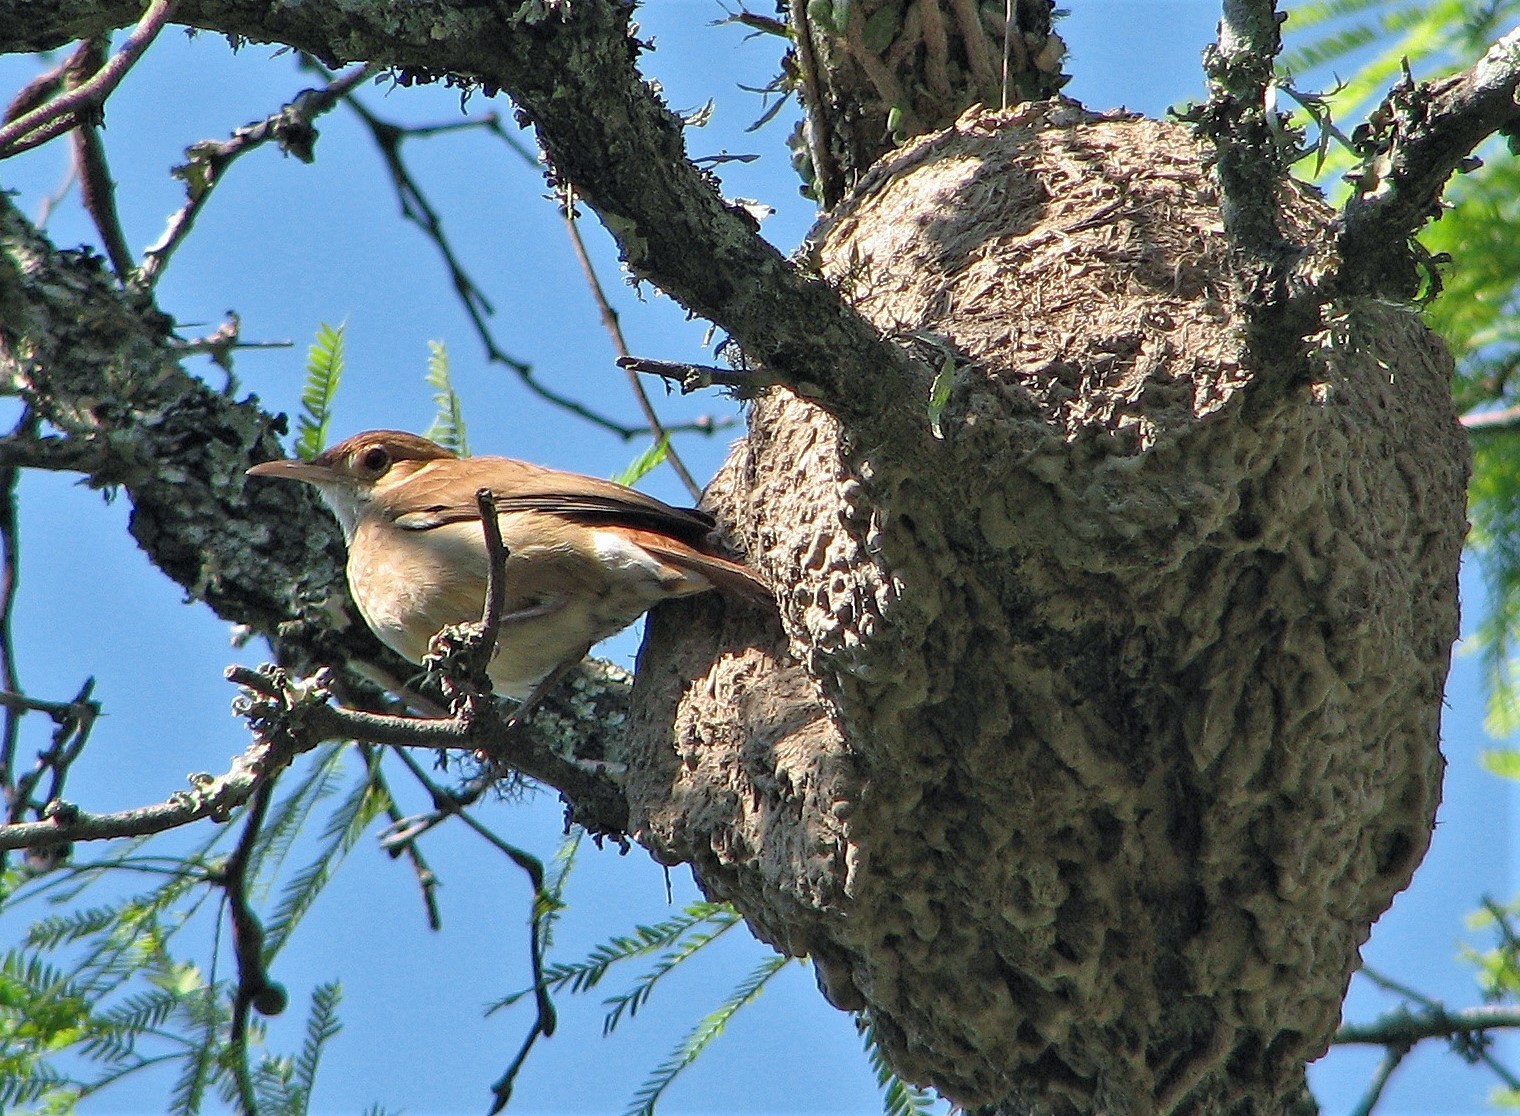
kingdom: Animalia
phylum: Chordata
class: Aves
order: Passeriformes
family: Furnariidae
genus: Furnarius
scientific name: Furnarius rufus
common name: Rufous hornero
